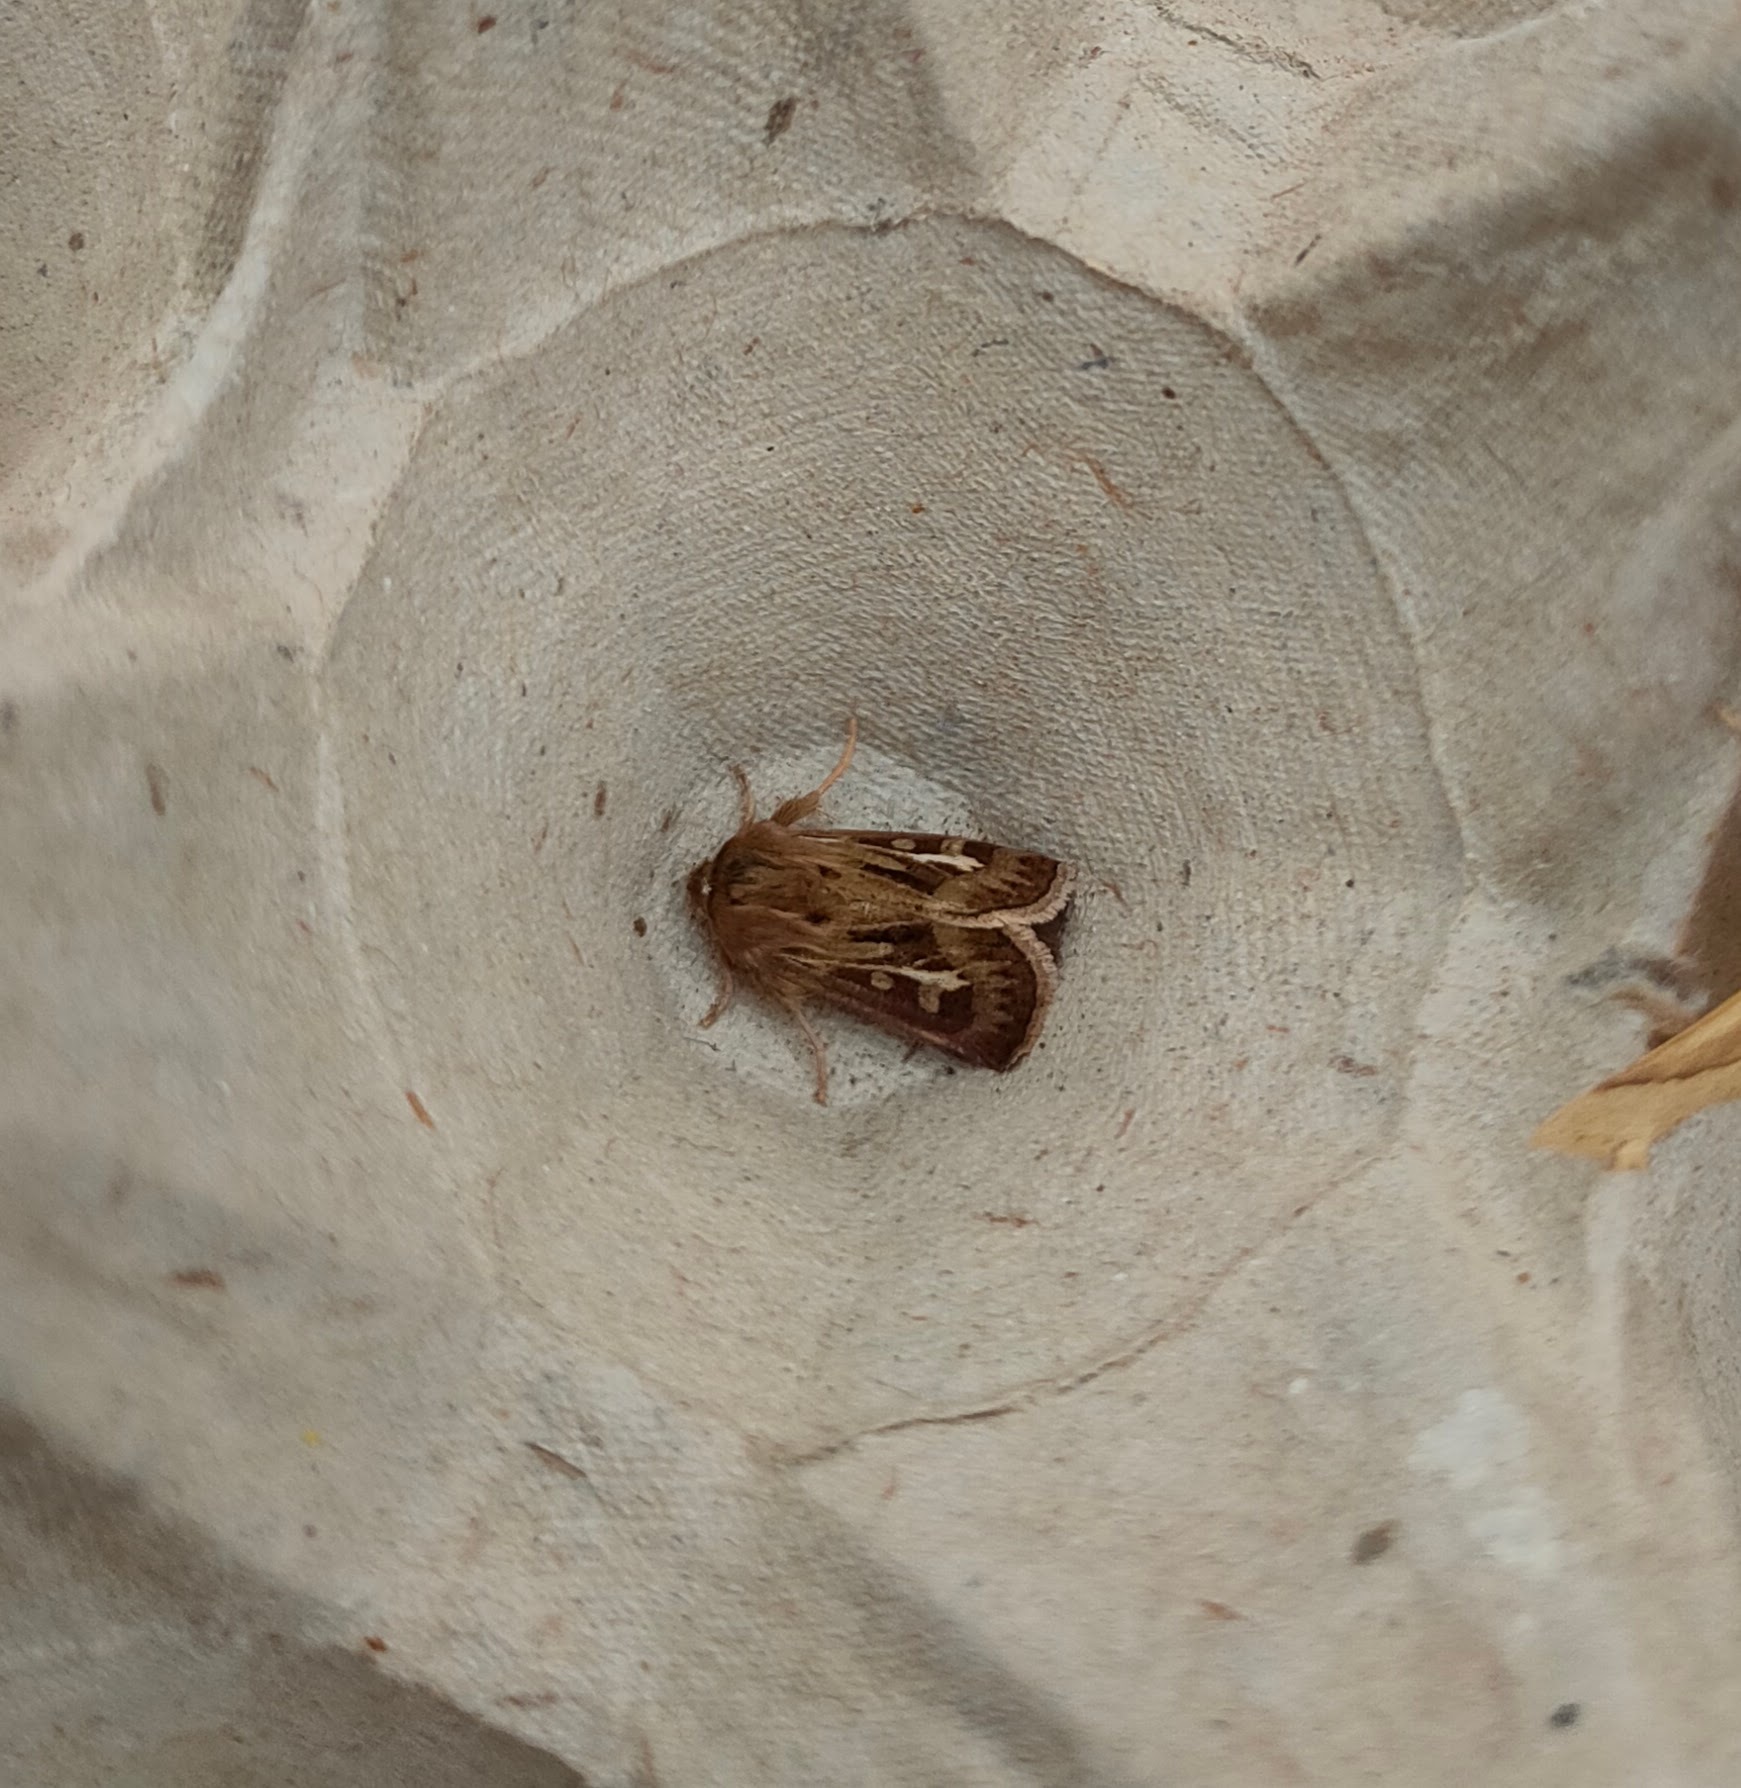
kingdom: Animalia
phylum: Arthropoda
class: Insecta
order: Lepidoptera
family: Noctuidae
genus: Cerapteryx
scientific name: Cerapteryx graminis
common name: Antler moth
